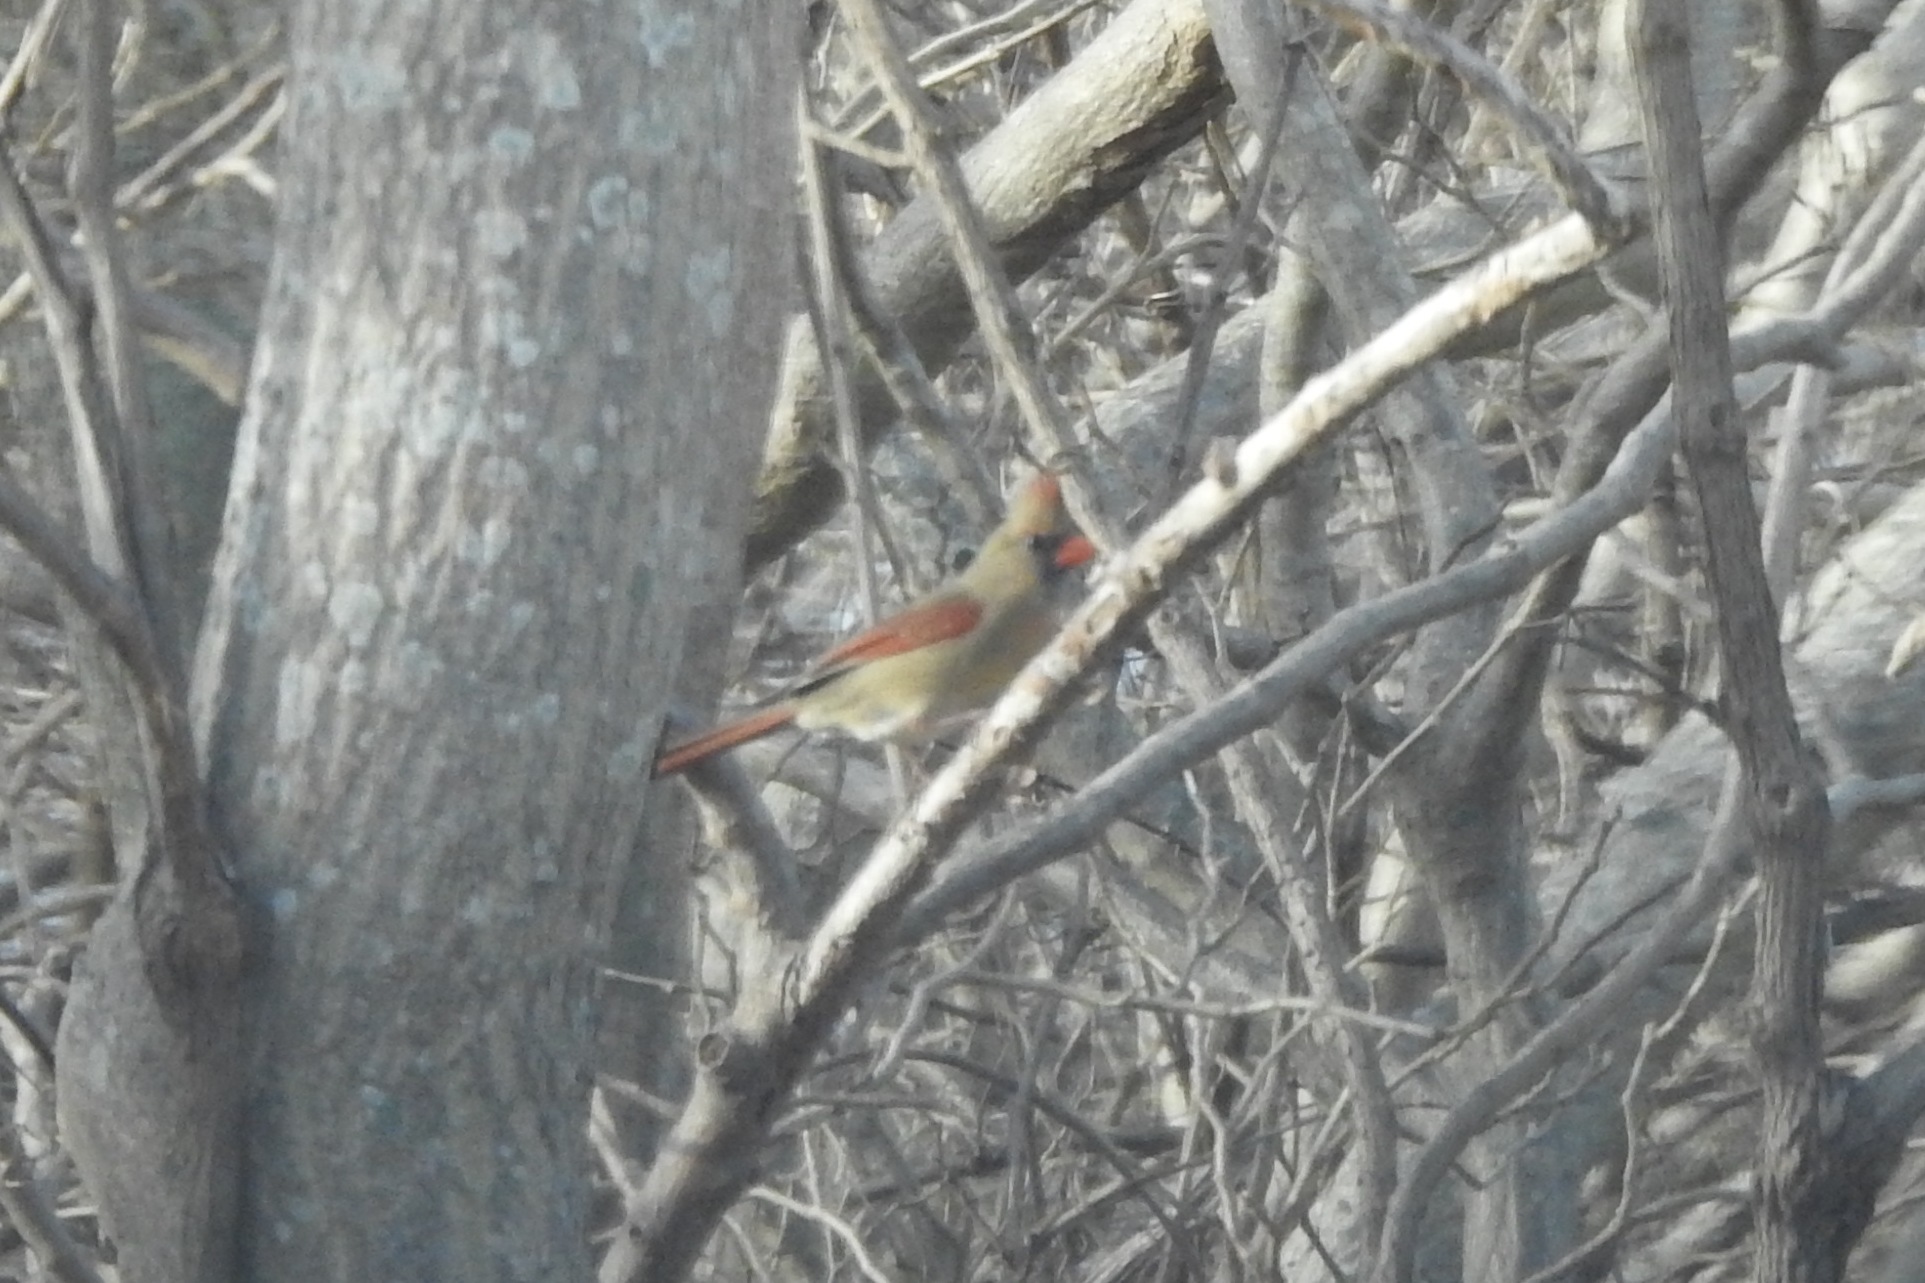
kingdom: Animalia
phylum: Chordata
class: Aves
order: Passeriformes
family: Cardinalidae
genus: Cardinalis
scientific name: Cardinalis cardinalis
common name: Northern cardinal
